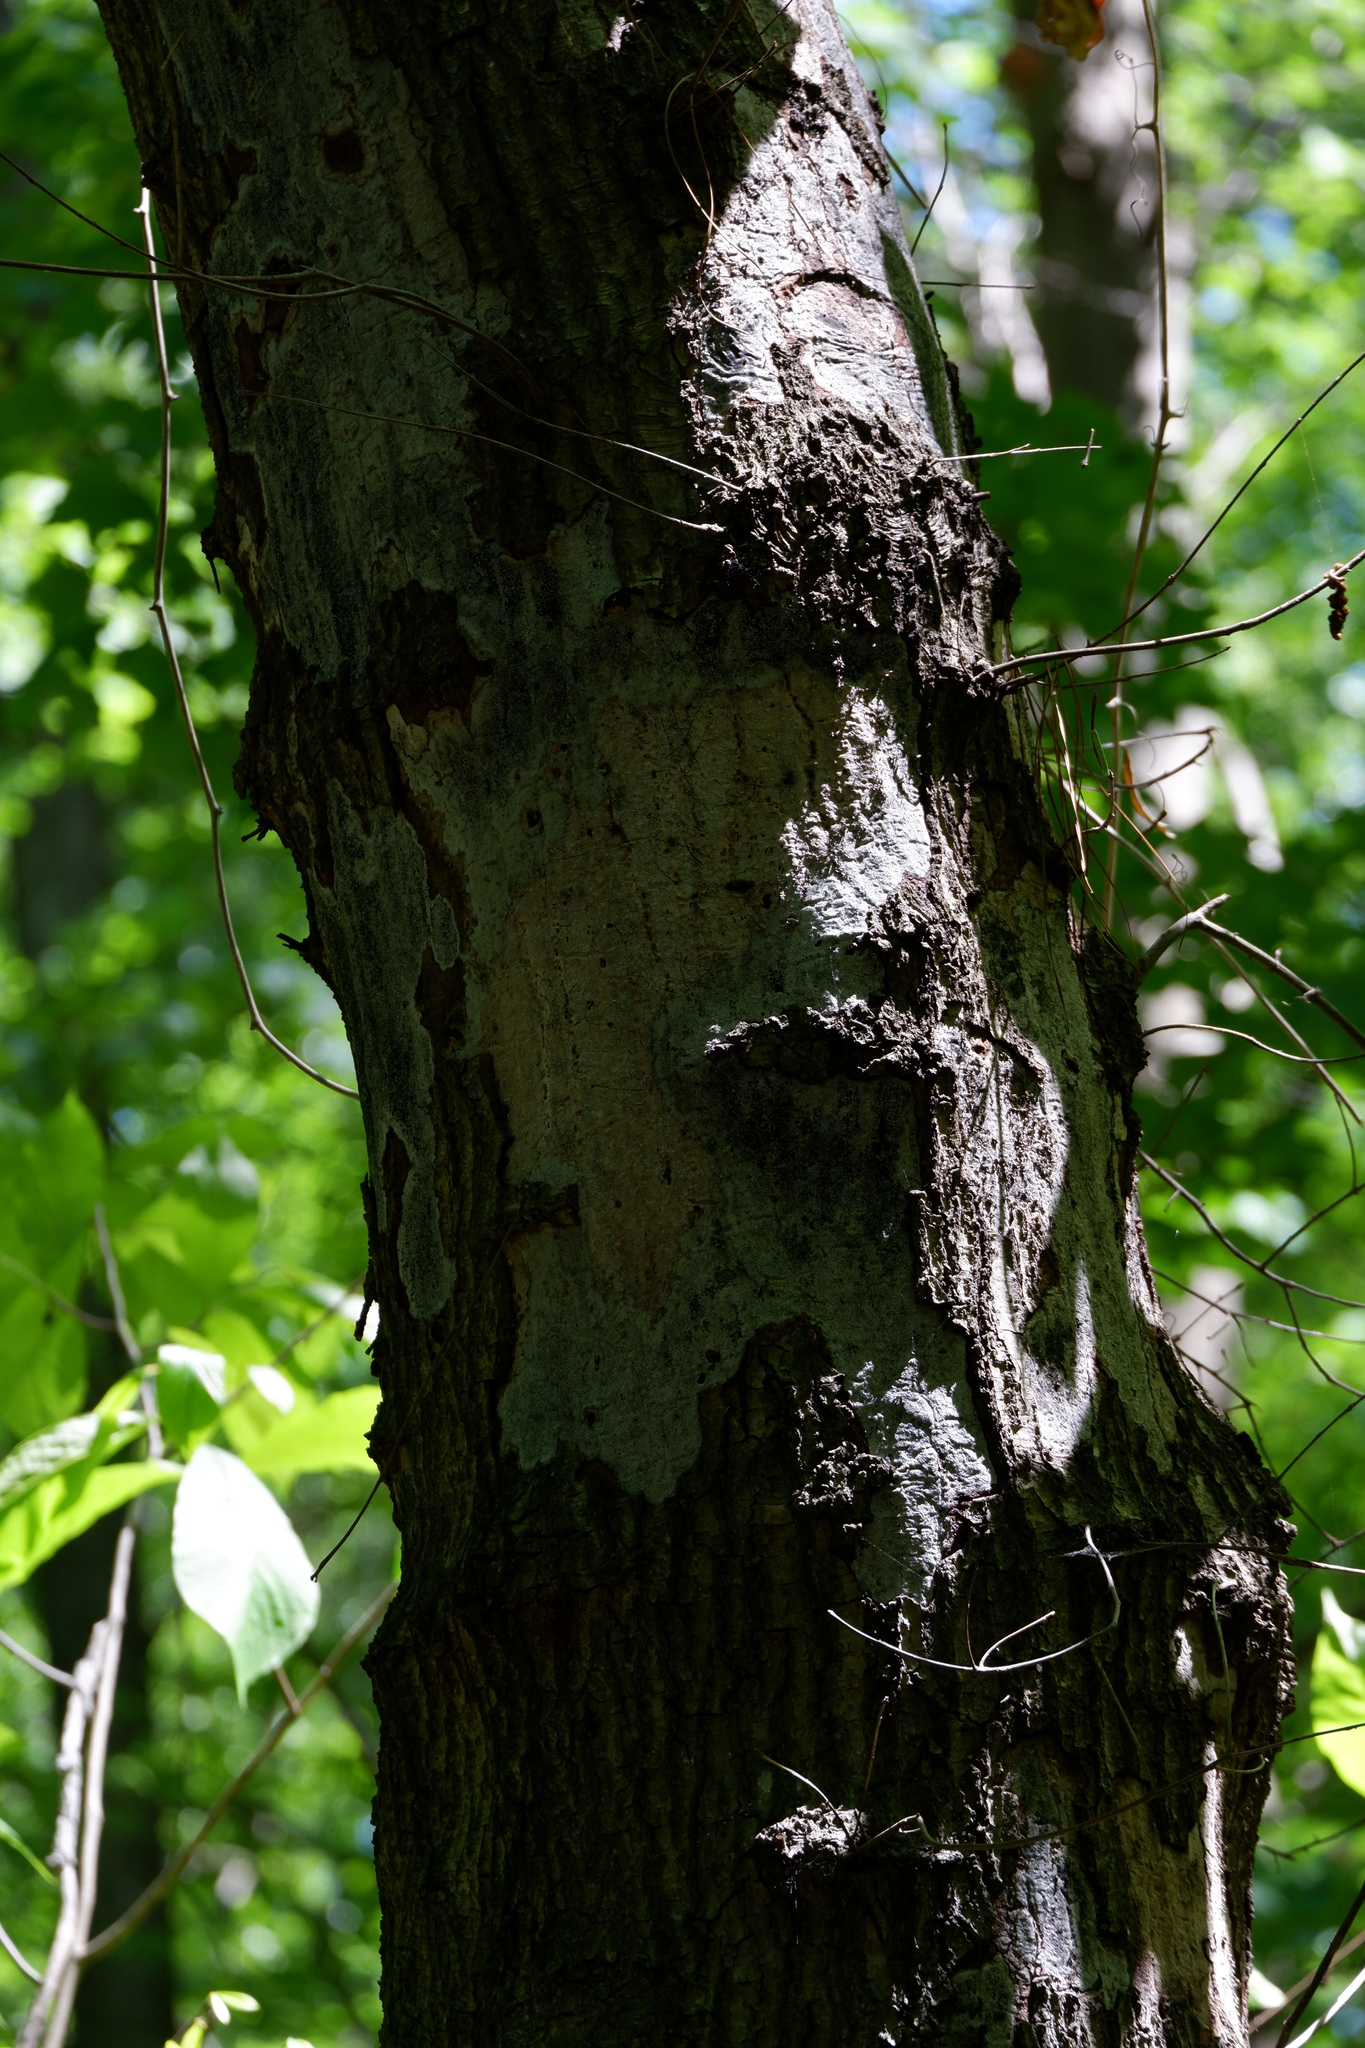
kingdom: Fungi
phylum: Ascomycota
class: Sordariomycetes
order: Xylariales
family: Graphostromataceae
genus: Biscogniauxia
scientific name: Biscogniauxia atropunctata
